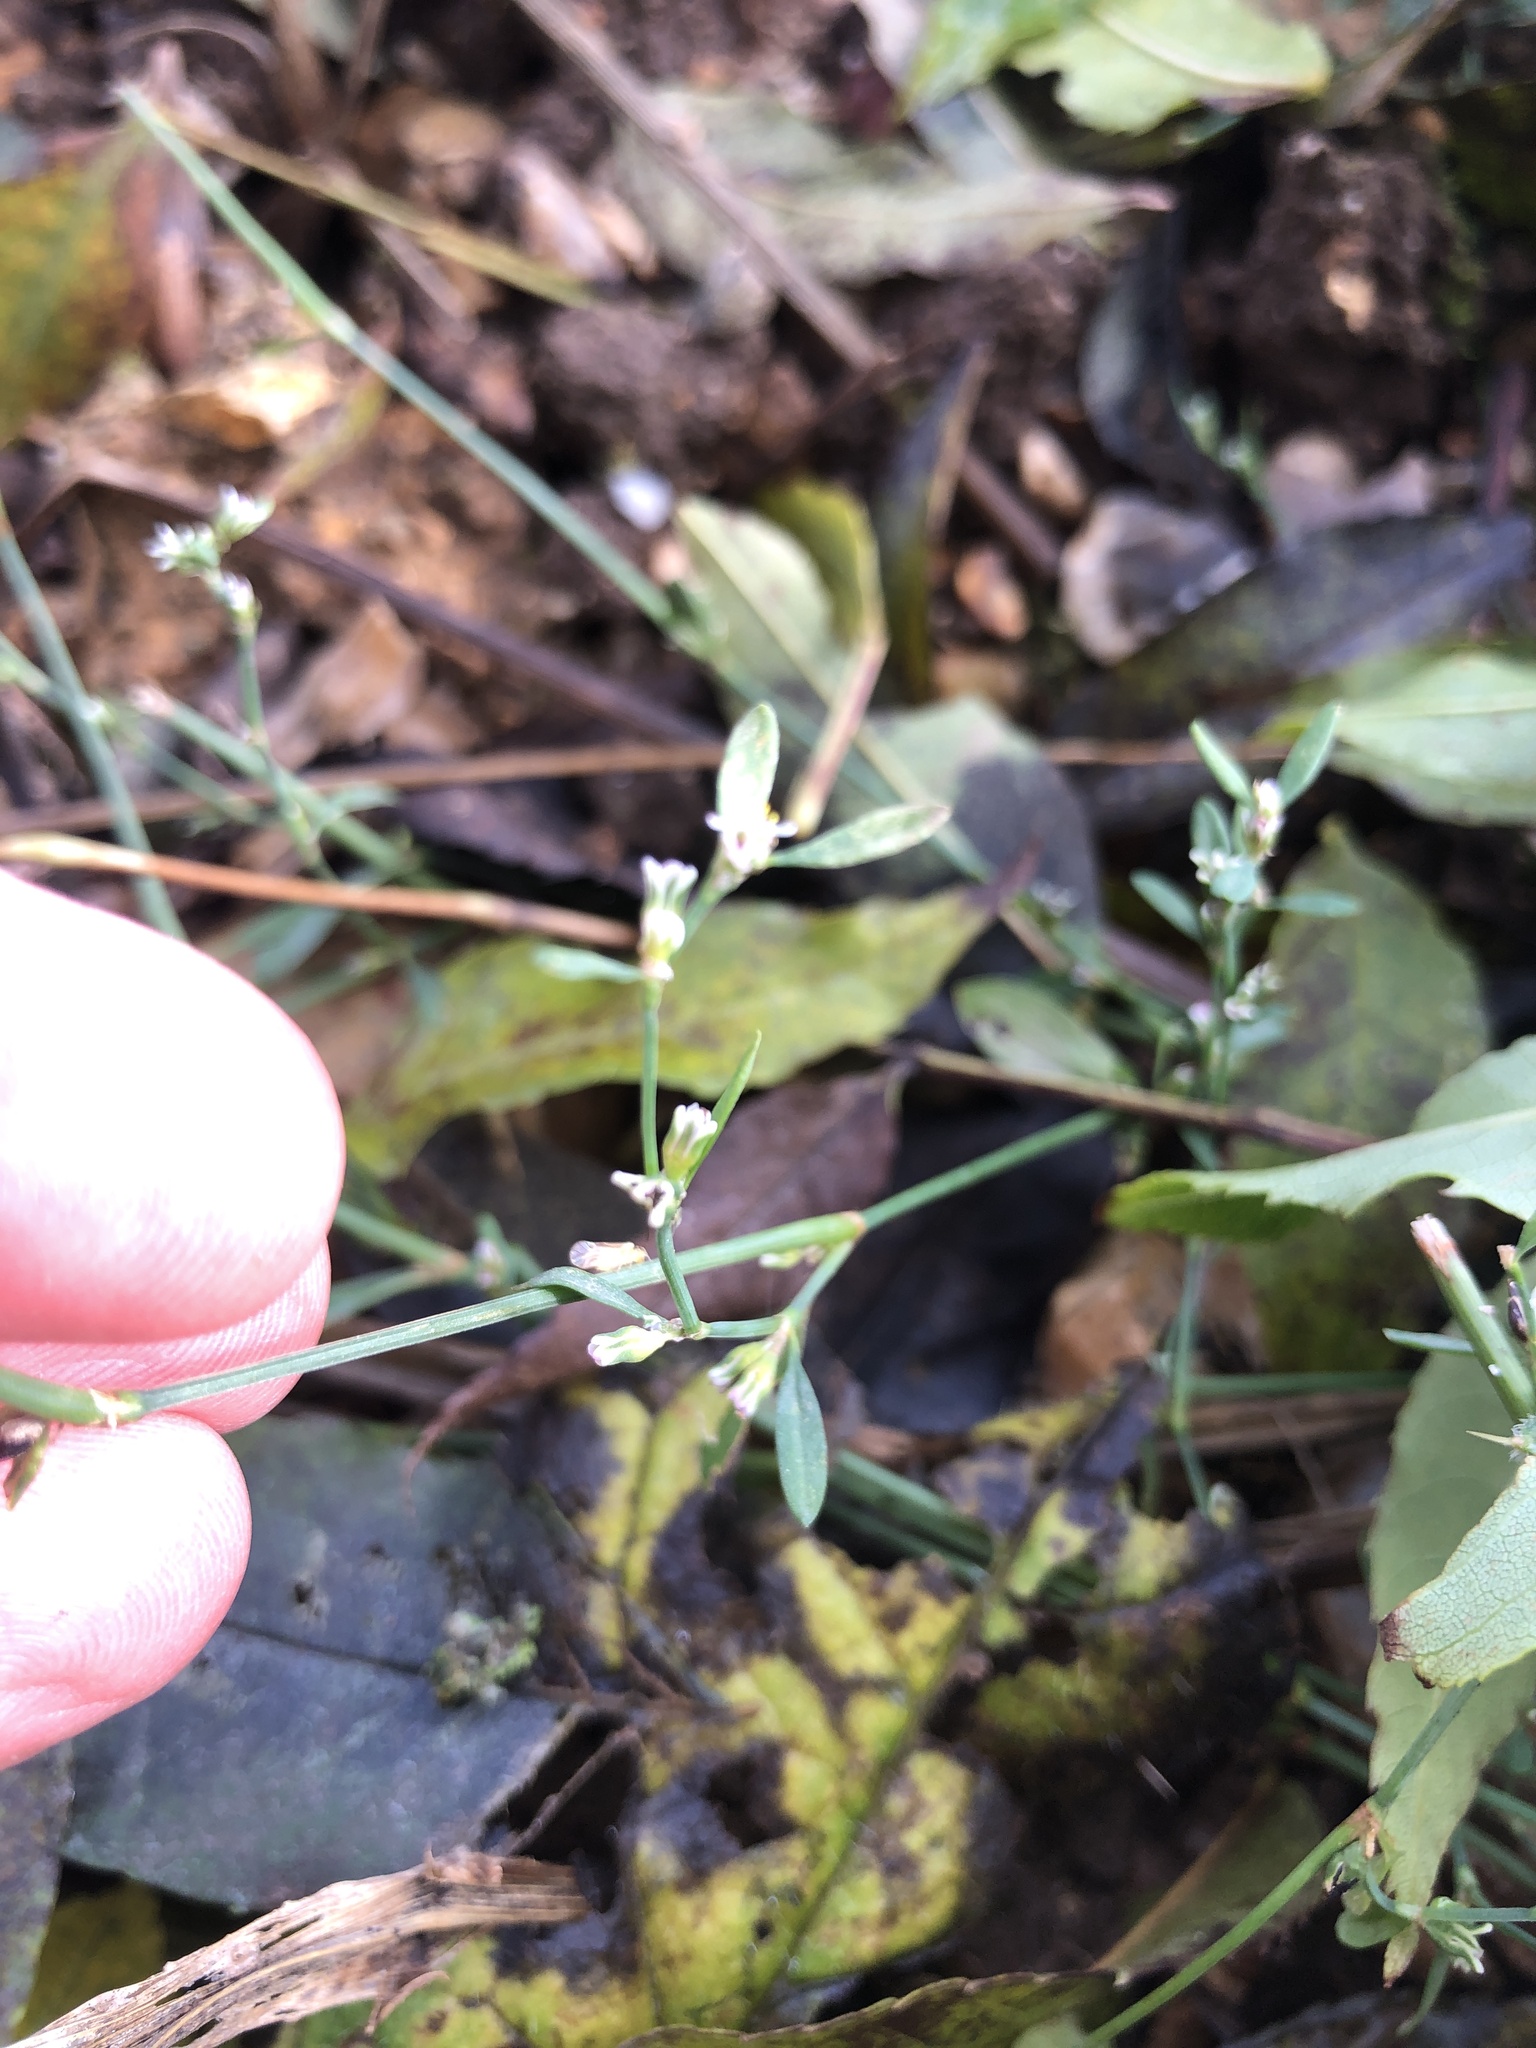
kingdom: Plantae
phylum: Tracheophyta
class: Magnoliopsida
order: Caryophyllales
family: Polygonaceae
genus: Polygonum
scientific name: Polygonum aviculare
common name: Prostrate knotweed
